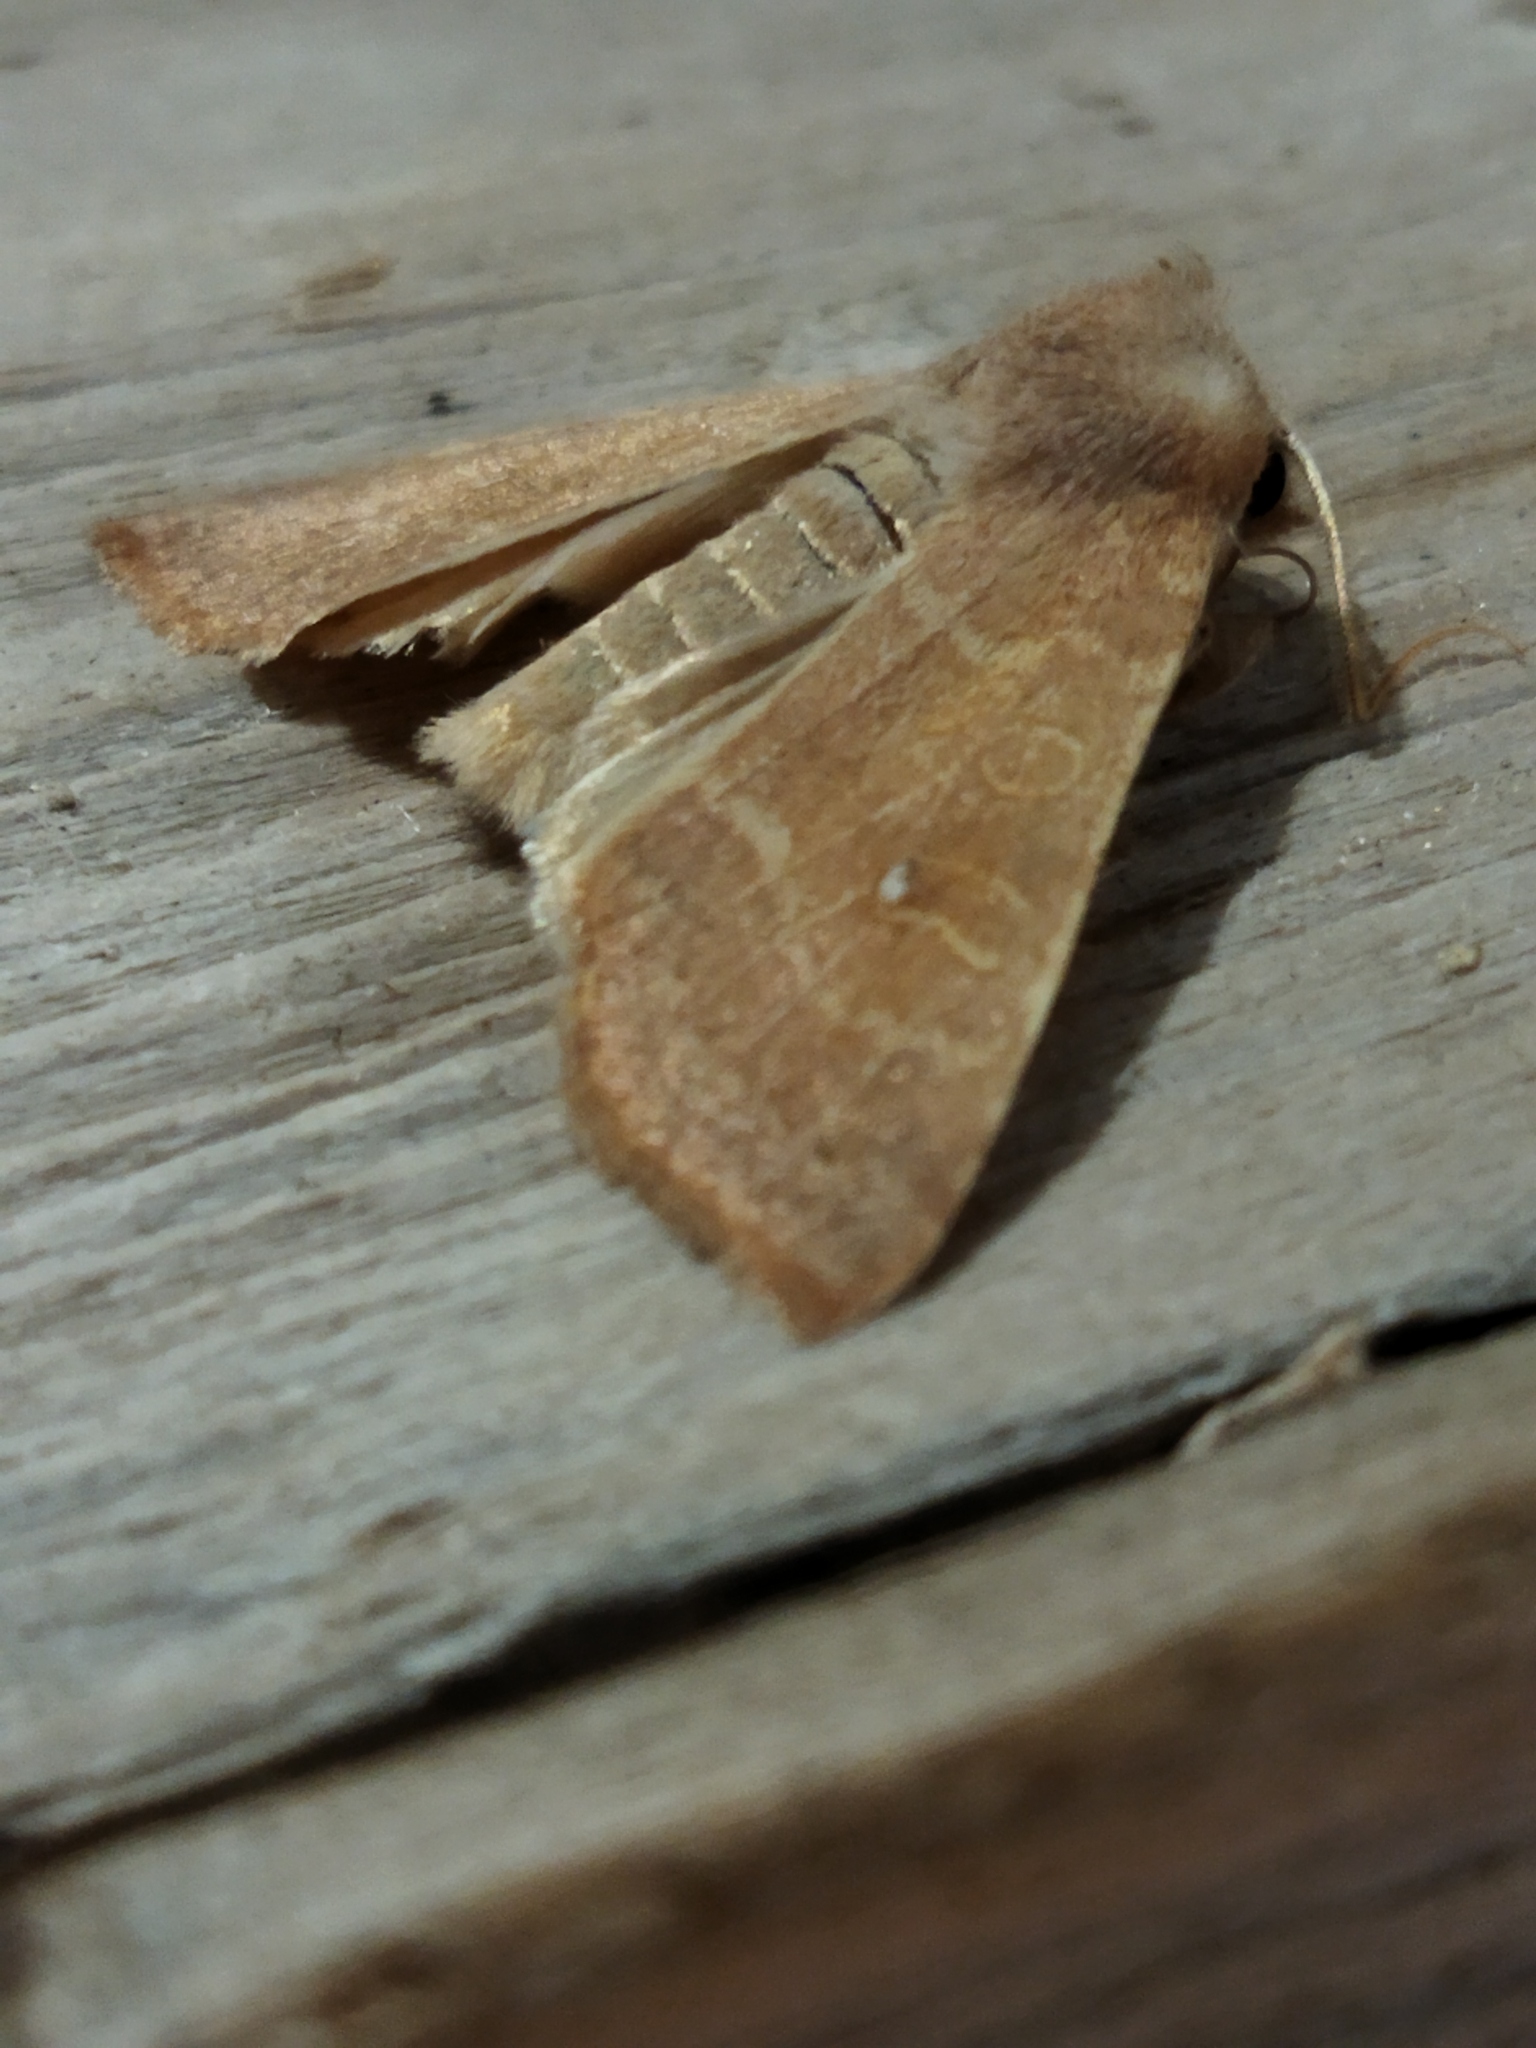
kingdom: Animalia
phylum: Arthropoda
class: Insecta
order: Lepidoptera
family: Noctuidae
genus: Xanthia
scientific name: Xanthia ocellaris
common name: Pale-lemon sallow
